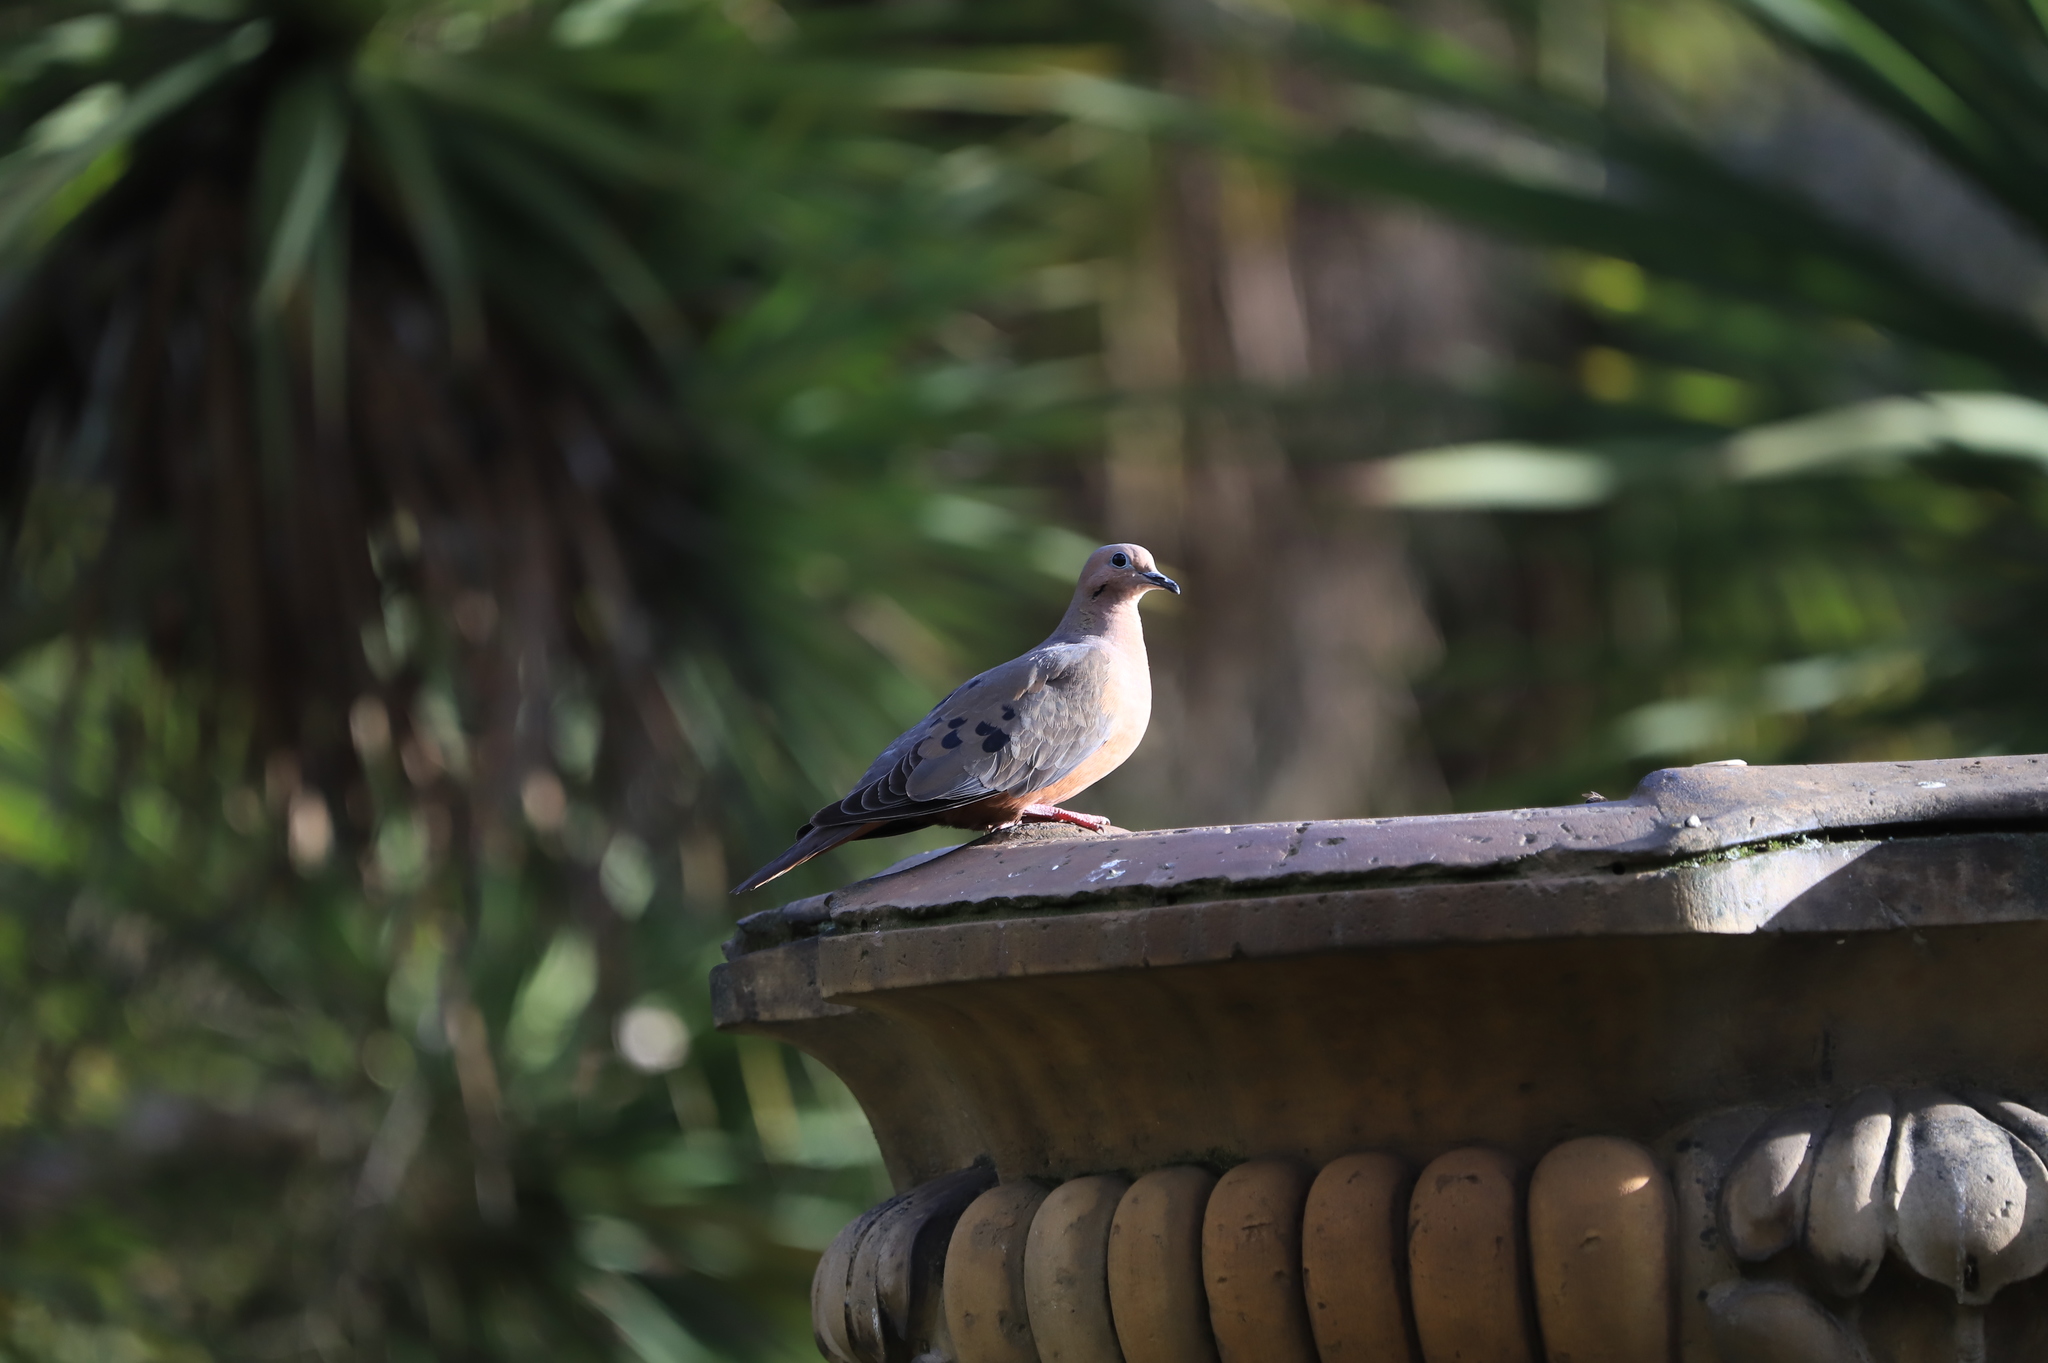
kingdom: Animalia
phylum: Chordata
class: Aves
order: Columbiformes
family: Columbidae
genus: Zenaida
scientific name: Zenaida auriculata
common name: Eared dove
